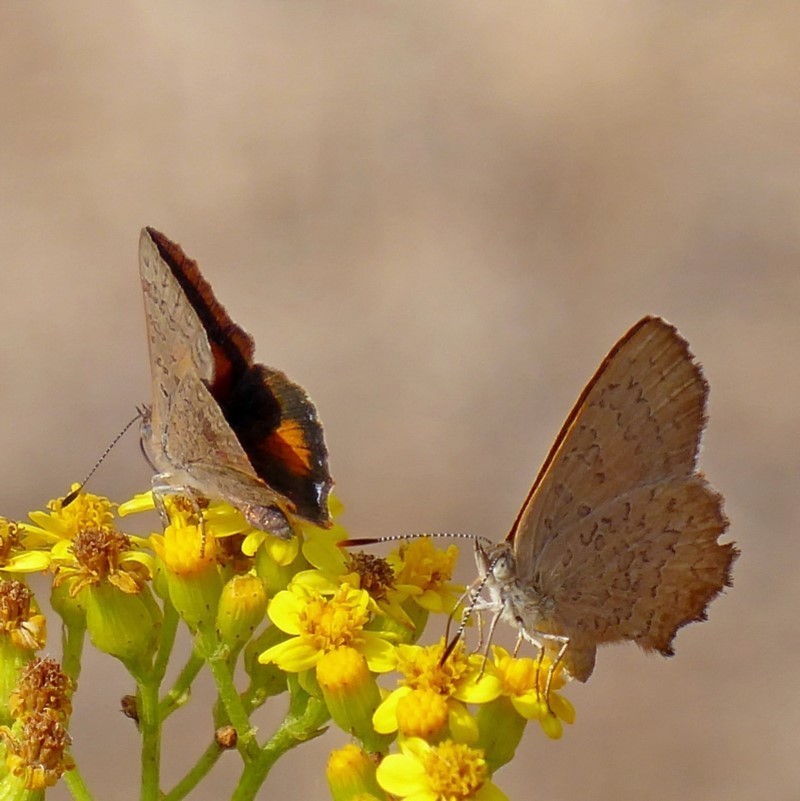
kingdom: Animalia
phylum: Arthropoda
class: Insecta
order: Lepidoptera
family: Lycaenidae
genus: Paralucia
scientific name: Paralucia aurifer
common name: Bright copper
